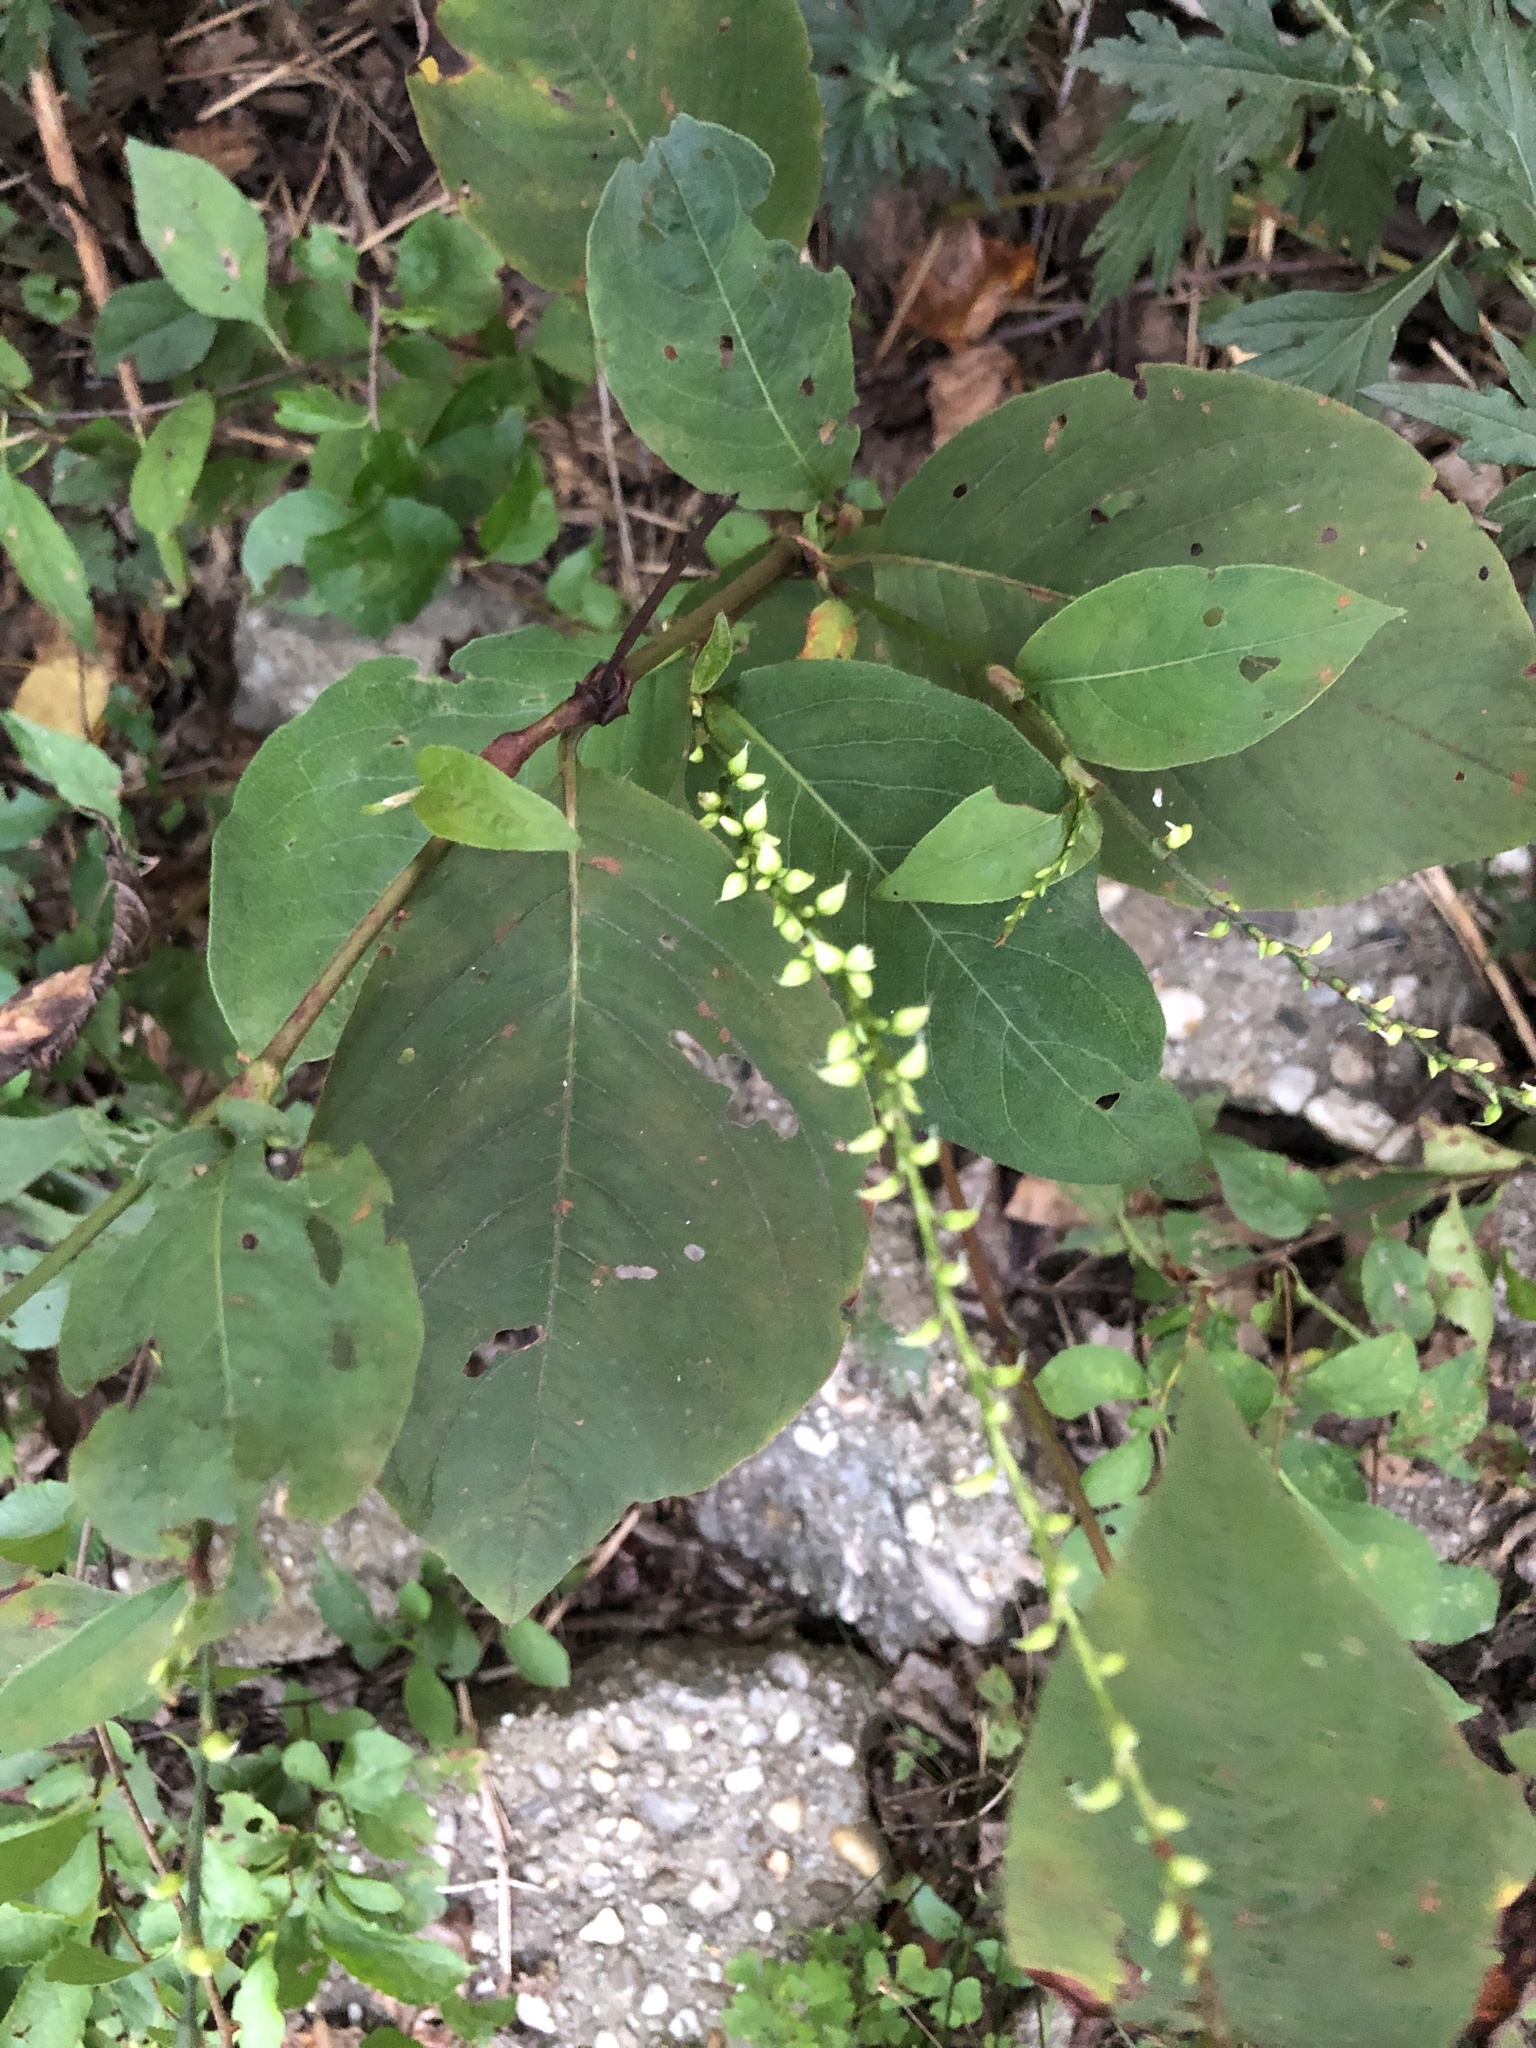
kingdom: Plantae
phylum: Tracheophyta
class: Magnoliopsida
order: Caryophyllales
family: Polygonaceae
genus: Persicaria
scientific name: Persicaria virginiana
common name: Jumpseed
